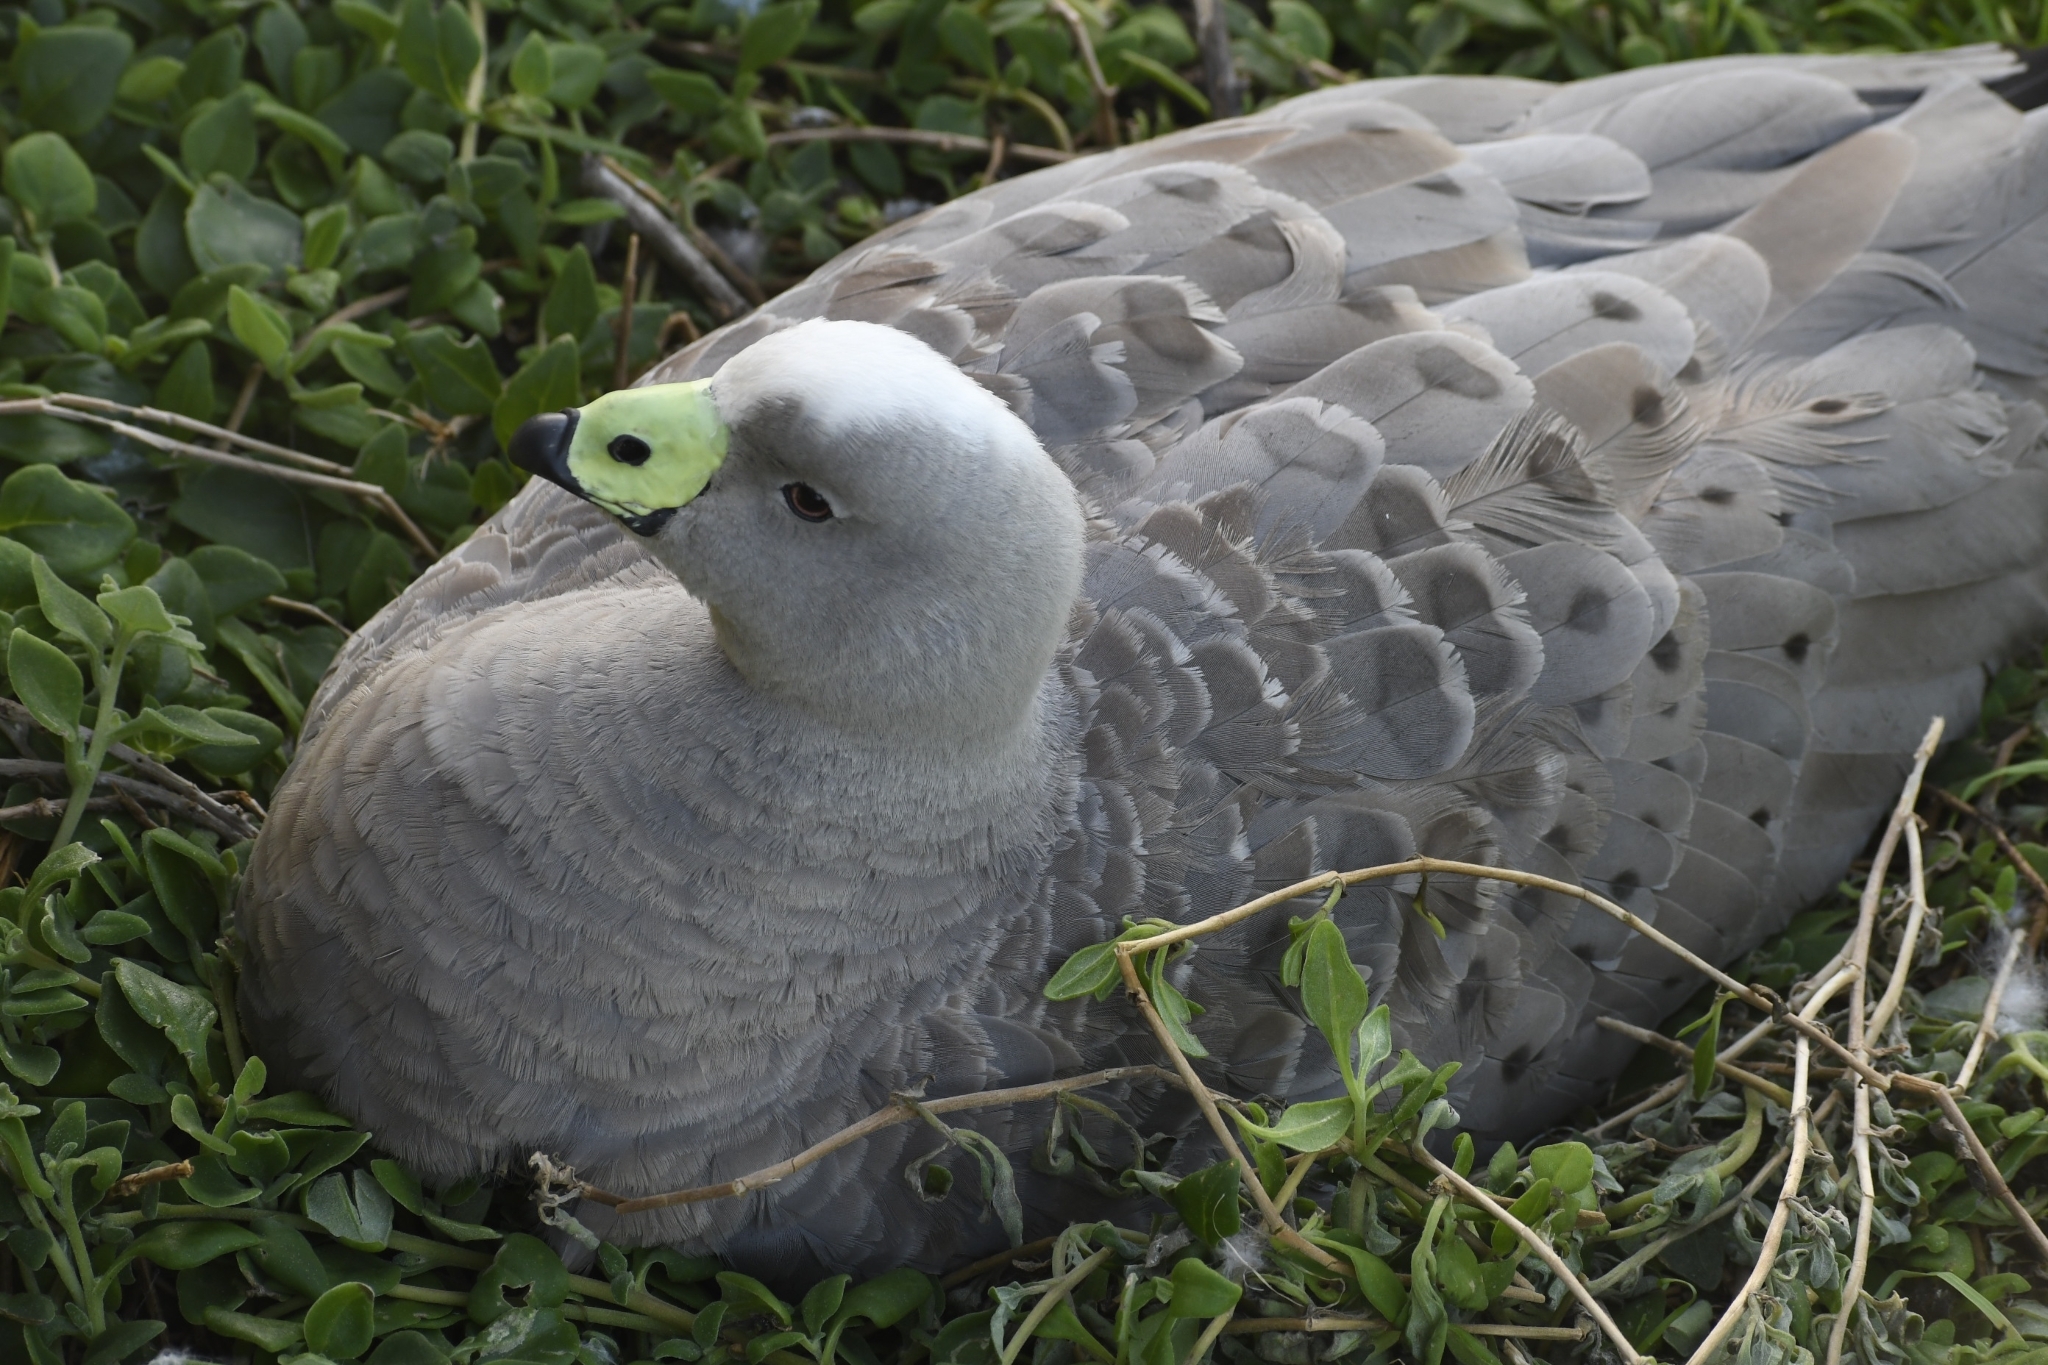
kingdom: Animalia
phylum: Chordata
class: Aves
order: Anseriformes
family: Anatidae
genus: Cereopsis
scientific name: Cereopsis novaehollandiae
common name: Cape barren goose
